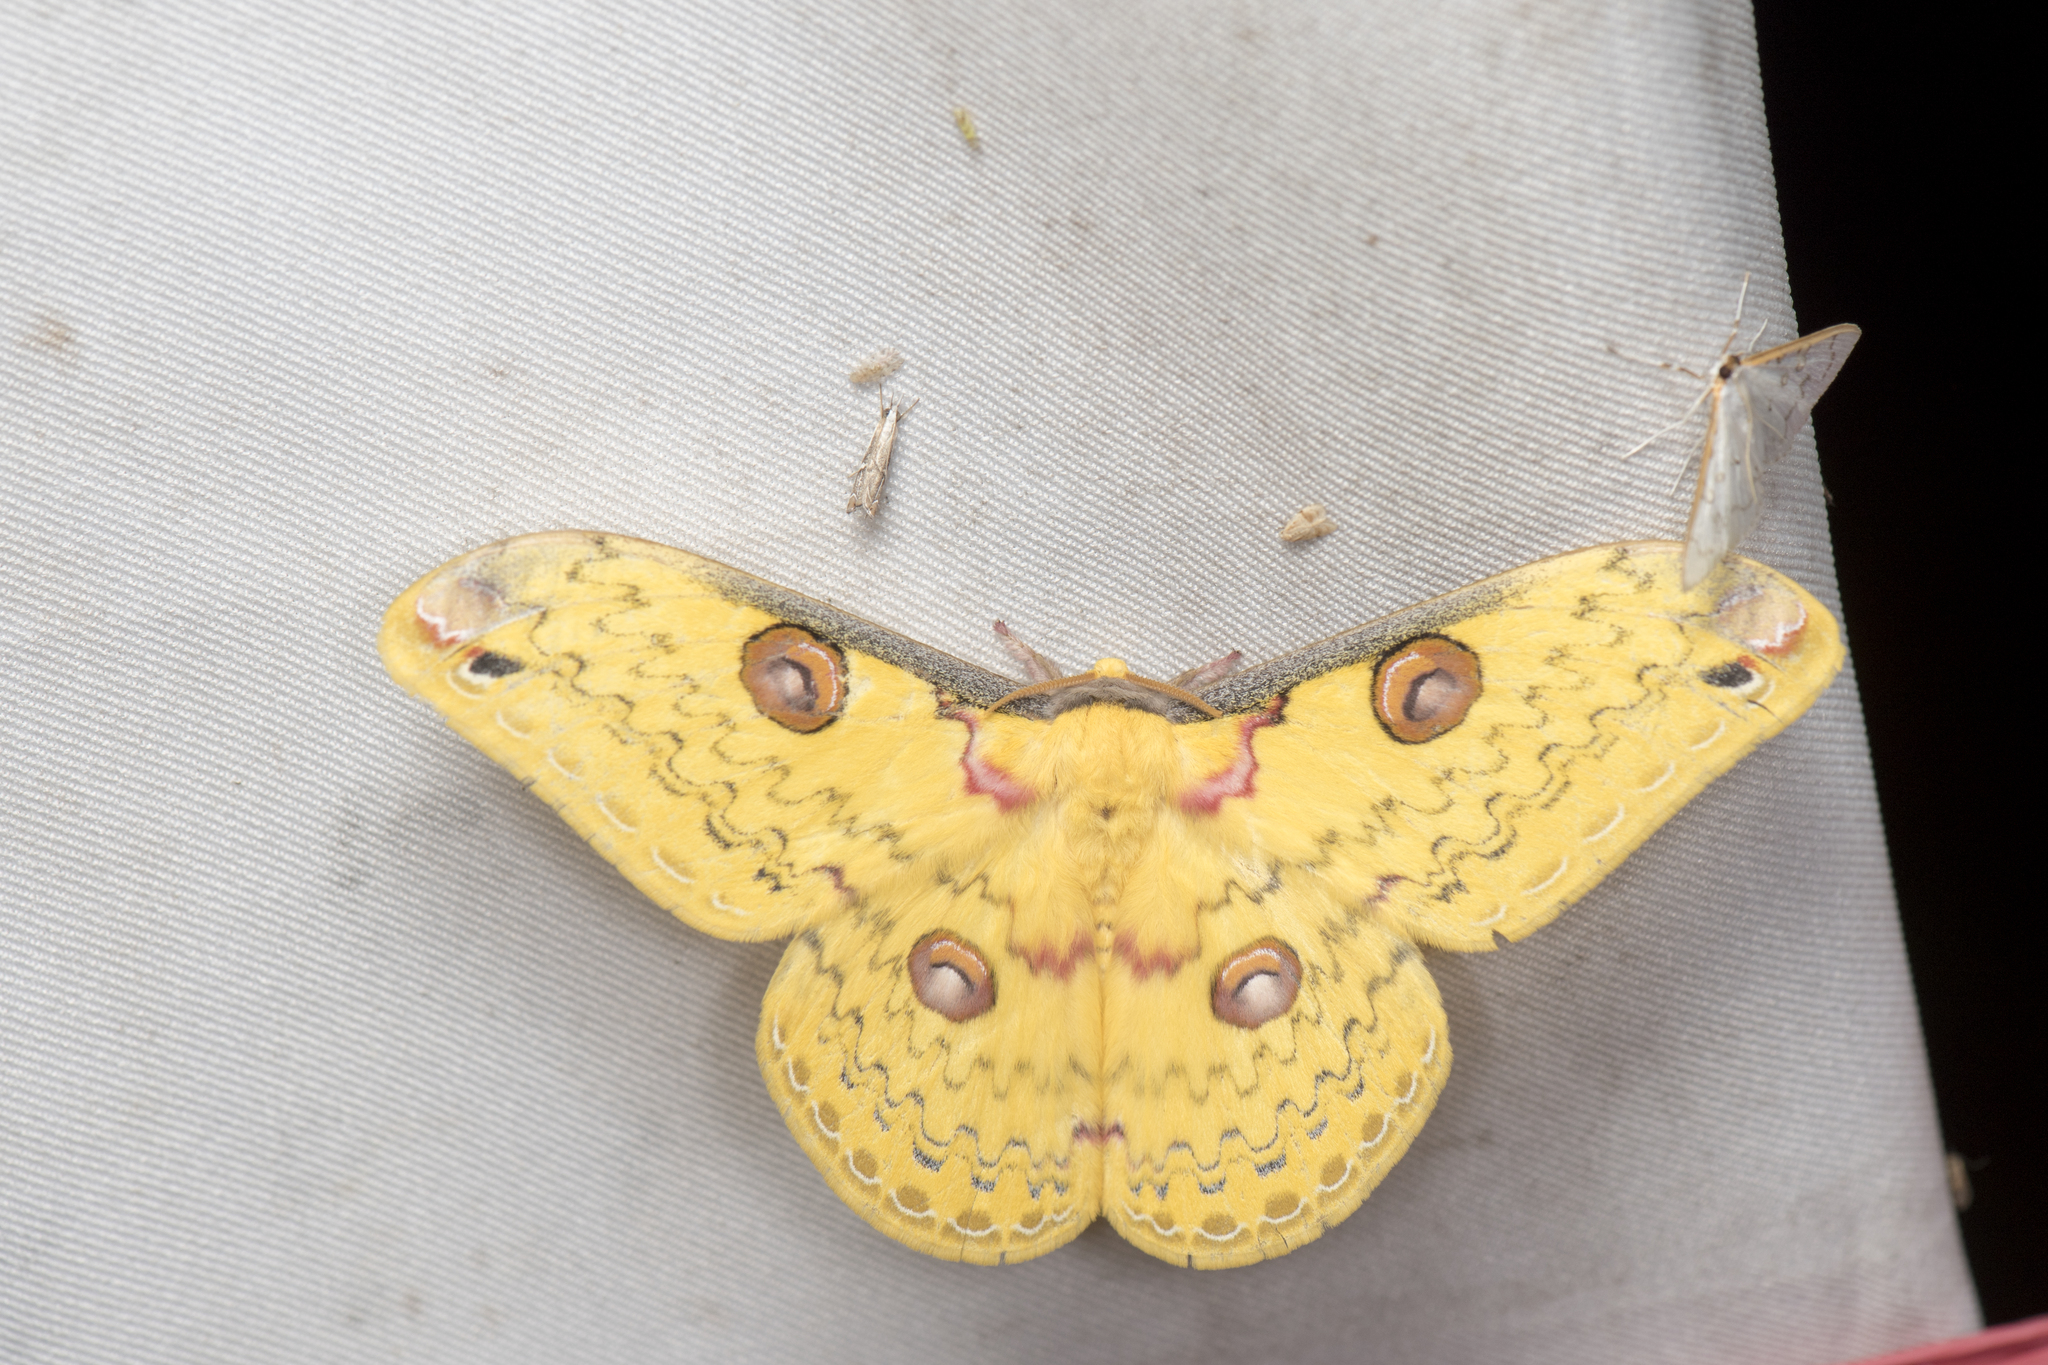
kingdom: Animalia
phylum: Arthropoda
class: Insecta
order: Lepidoptera
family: Saturniidae
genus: Loepa
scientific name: Loepa formosensis
